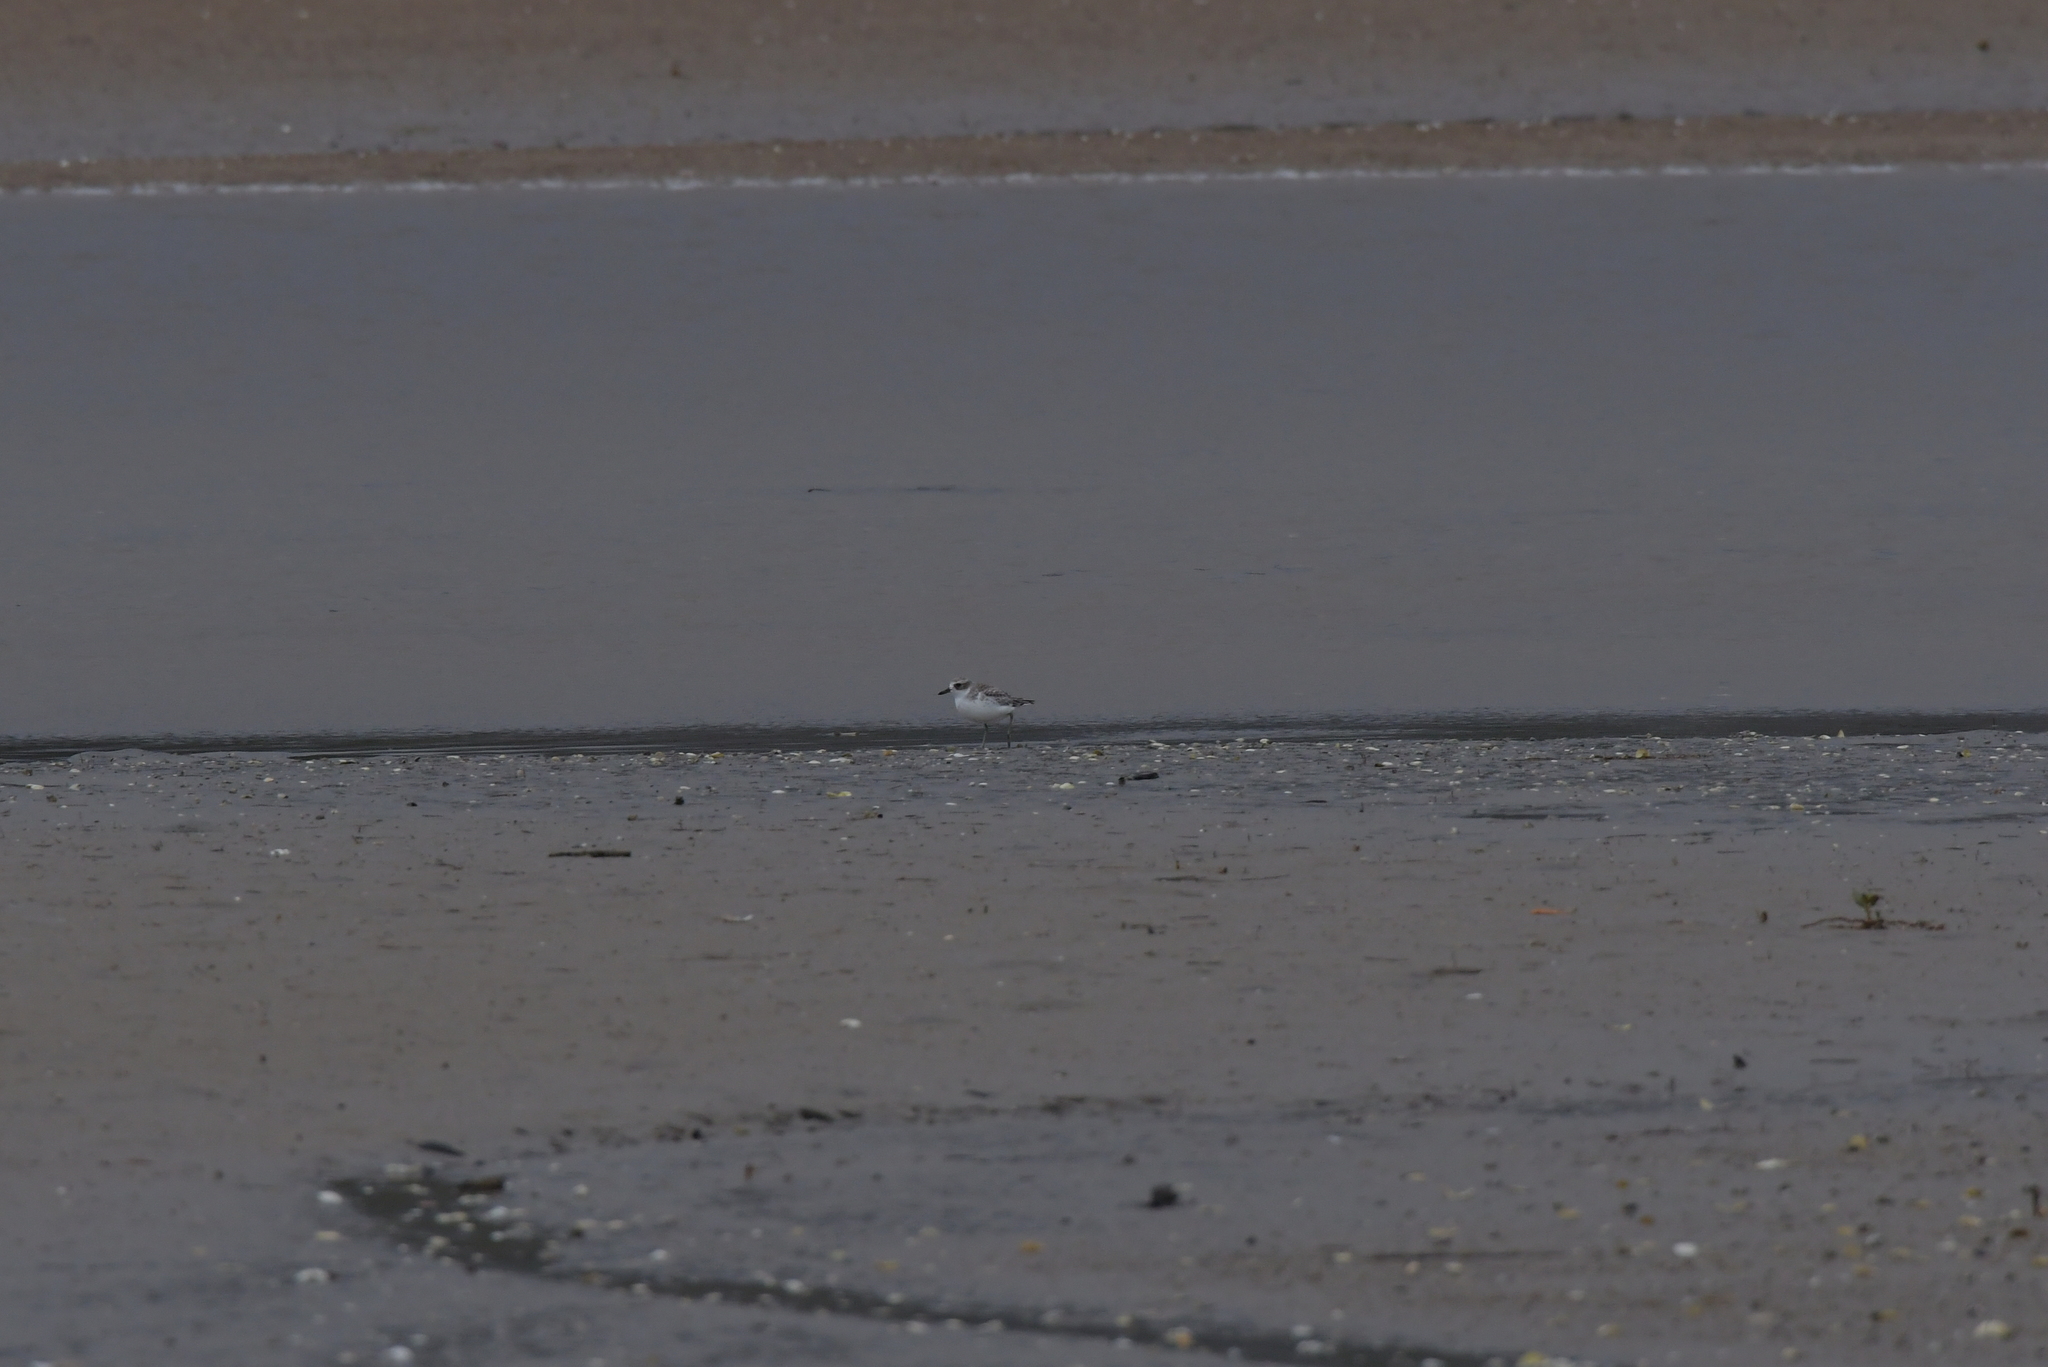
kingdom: Animalia
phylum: Chordata
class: Aves
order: Charadriiformes
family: Charadriidae
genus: Anarhynchus
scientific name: Anarhynchus
